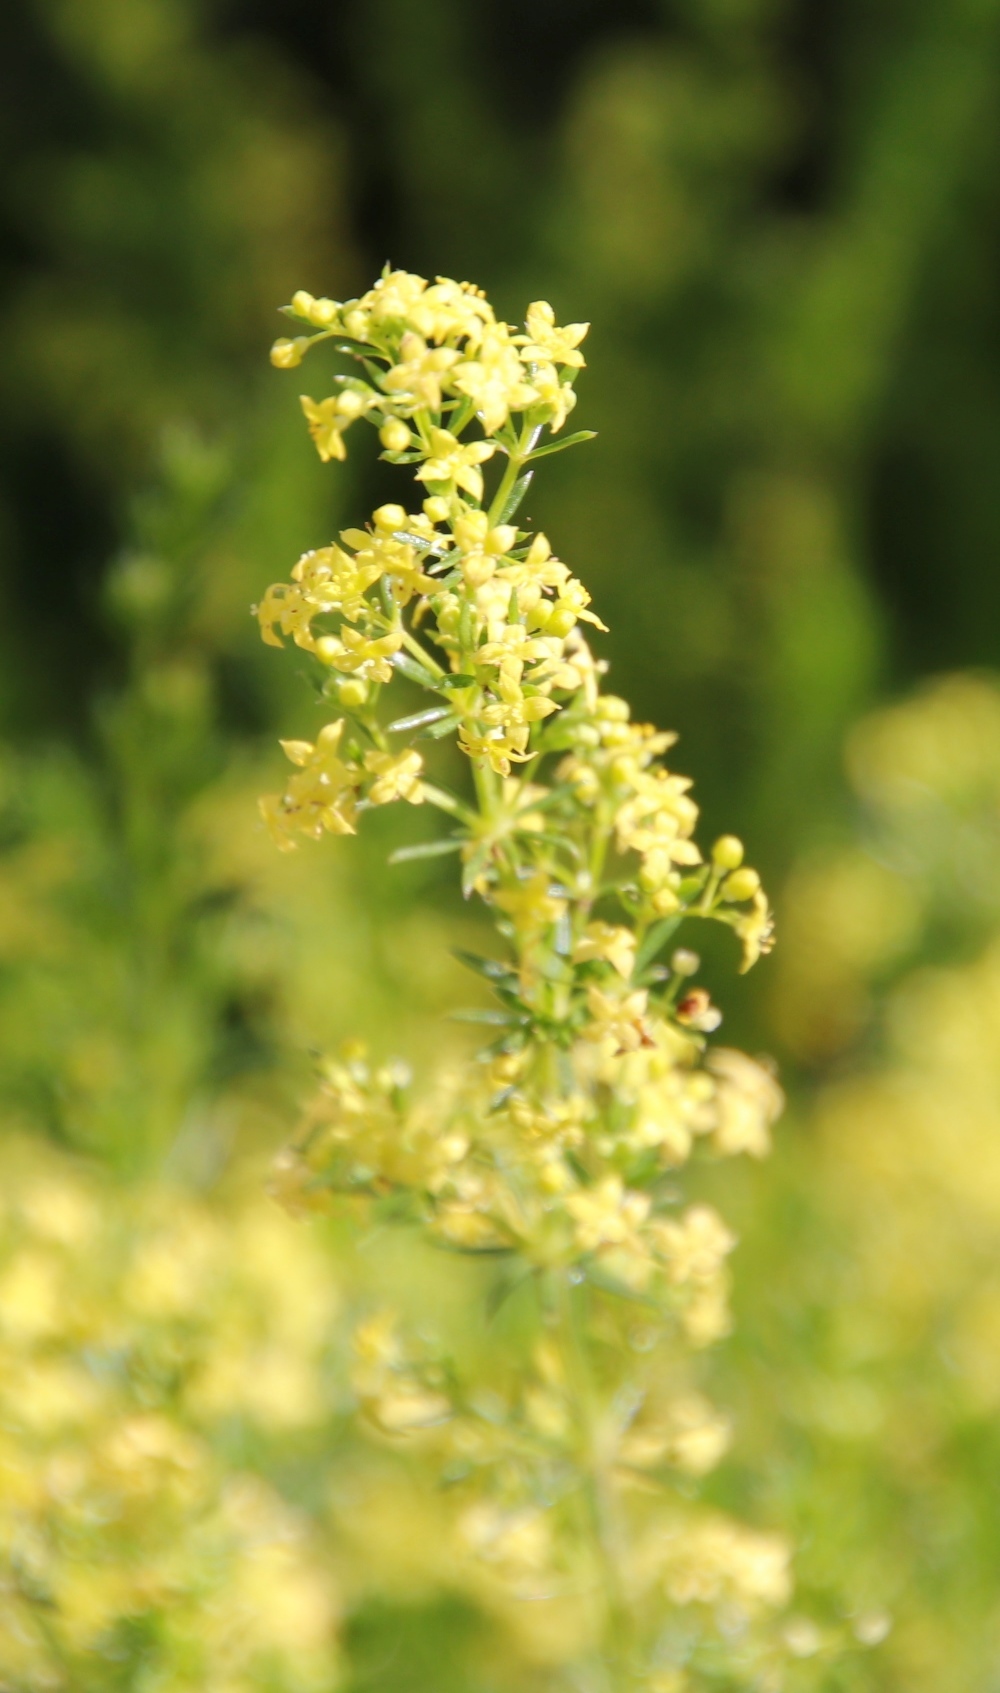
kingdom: Plantae
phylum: Tracheophyta
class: Magnoliopsida
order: Gentianales
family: Rubiaceae
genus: Galium
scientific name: Galium capense
